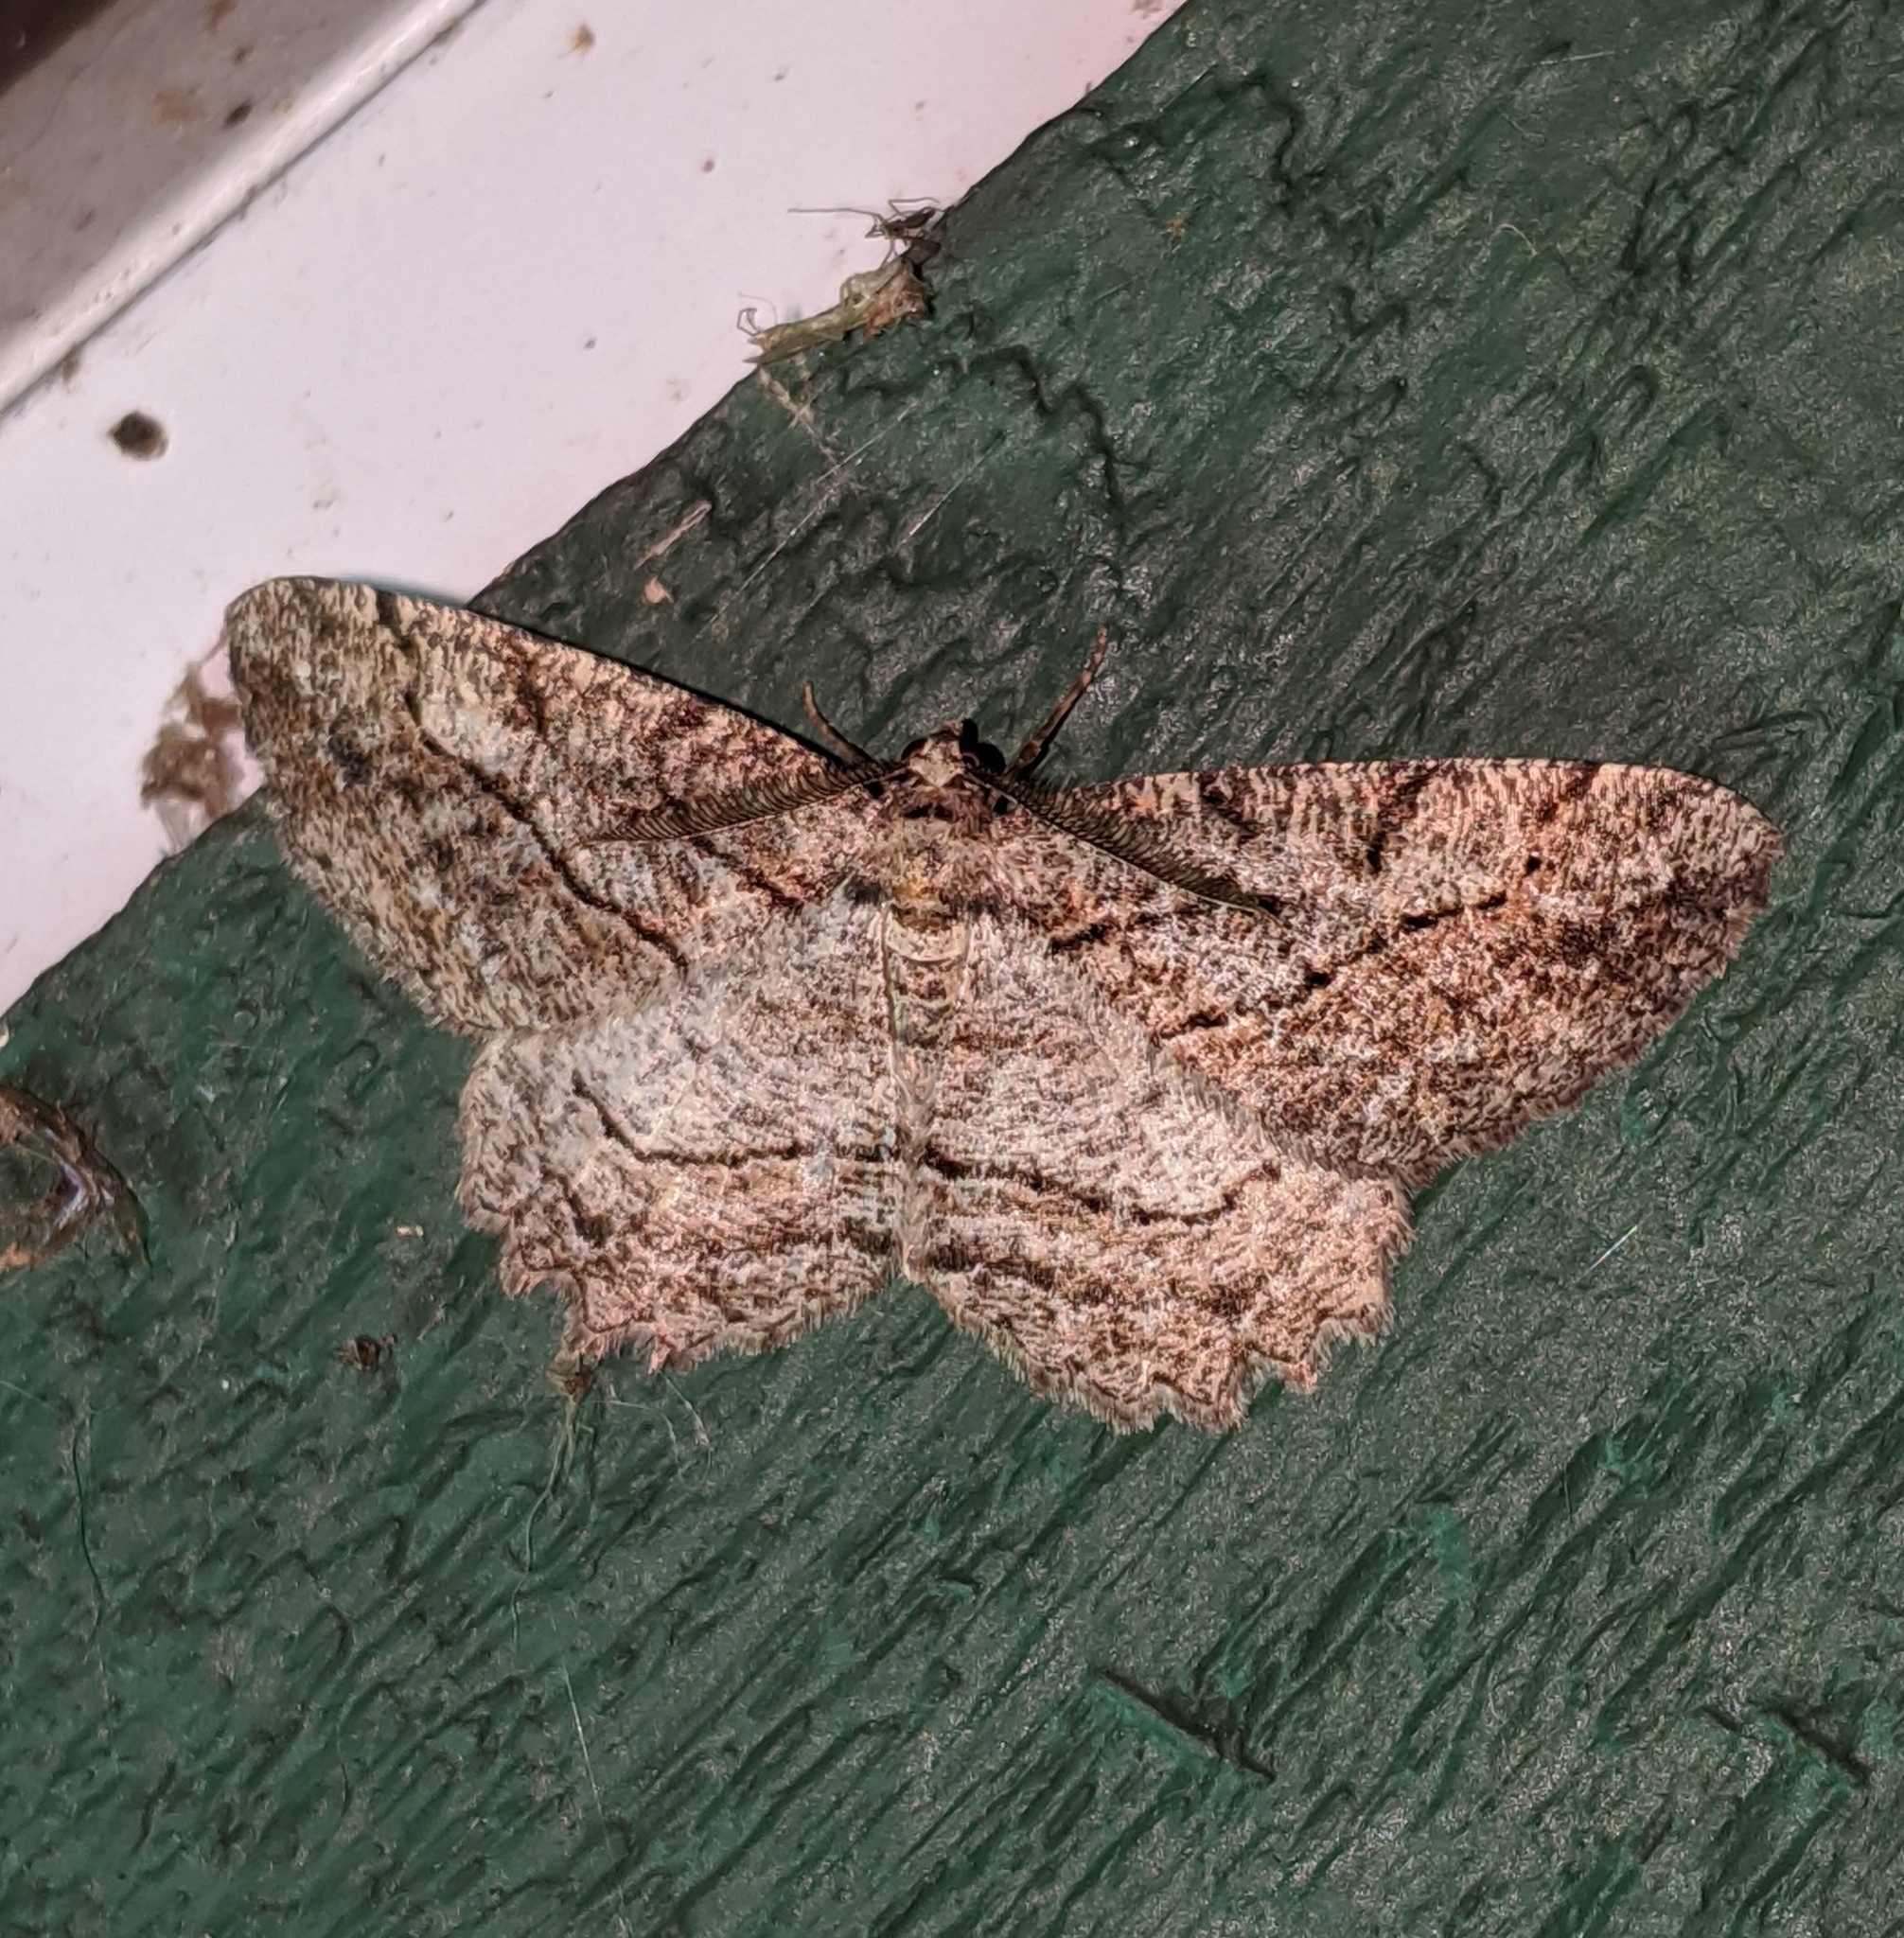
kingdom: Animalia
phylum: Arthropoda
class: Insecta
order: Lepidoptera
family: Geometridae
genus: Neoalcis
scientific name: Neoalcis californiaria
